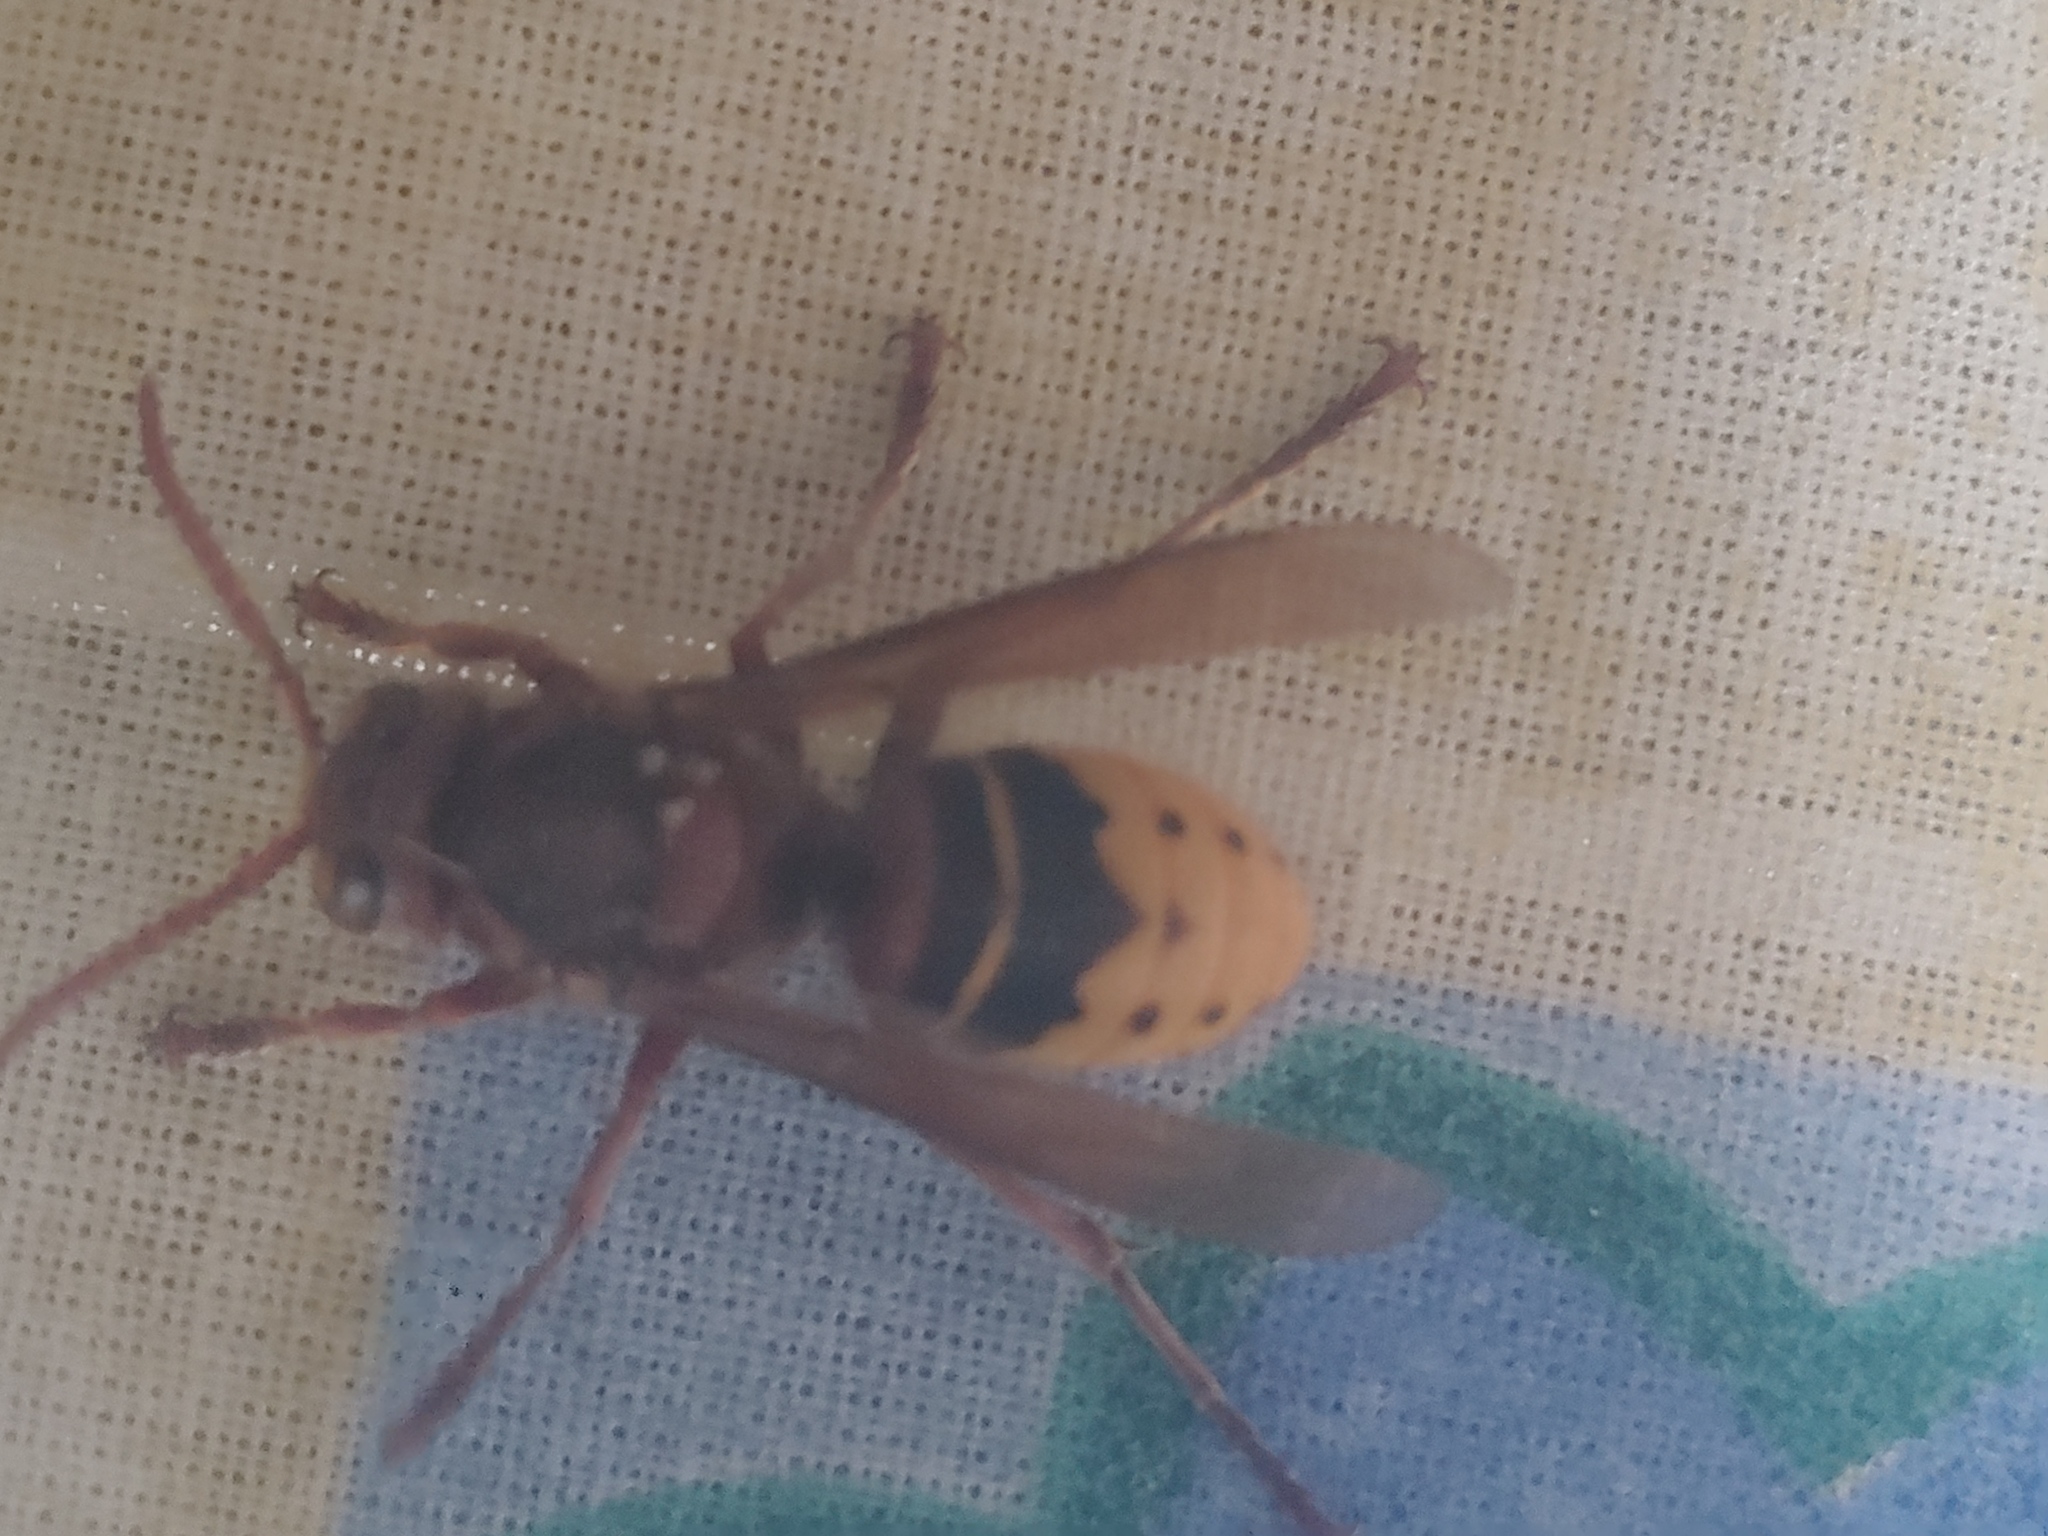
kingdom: Animalia
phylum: Arthropoda
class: Insecta
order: Hymenoptera
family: Vespidae
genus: Vespa
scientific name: Vespa crabro
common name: Hornet
